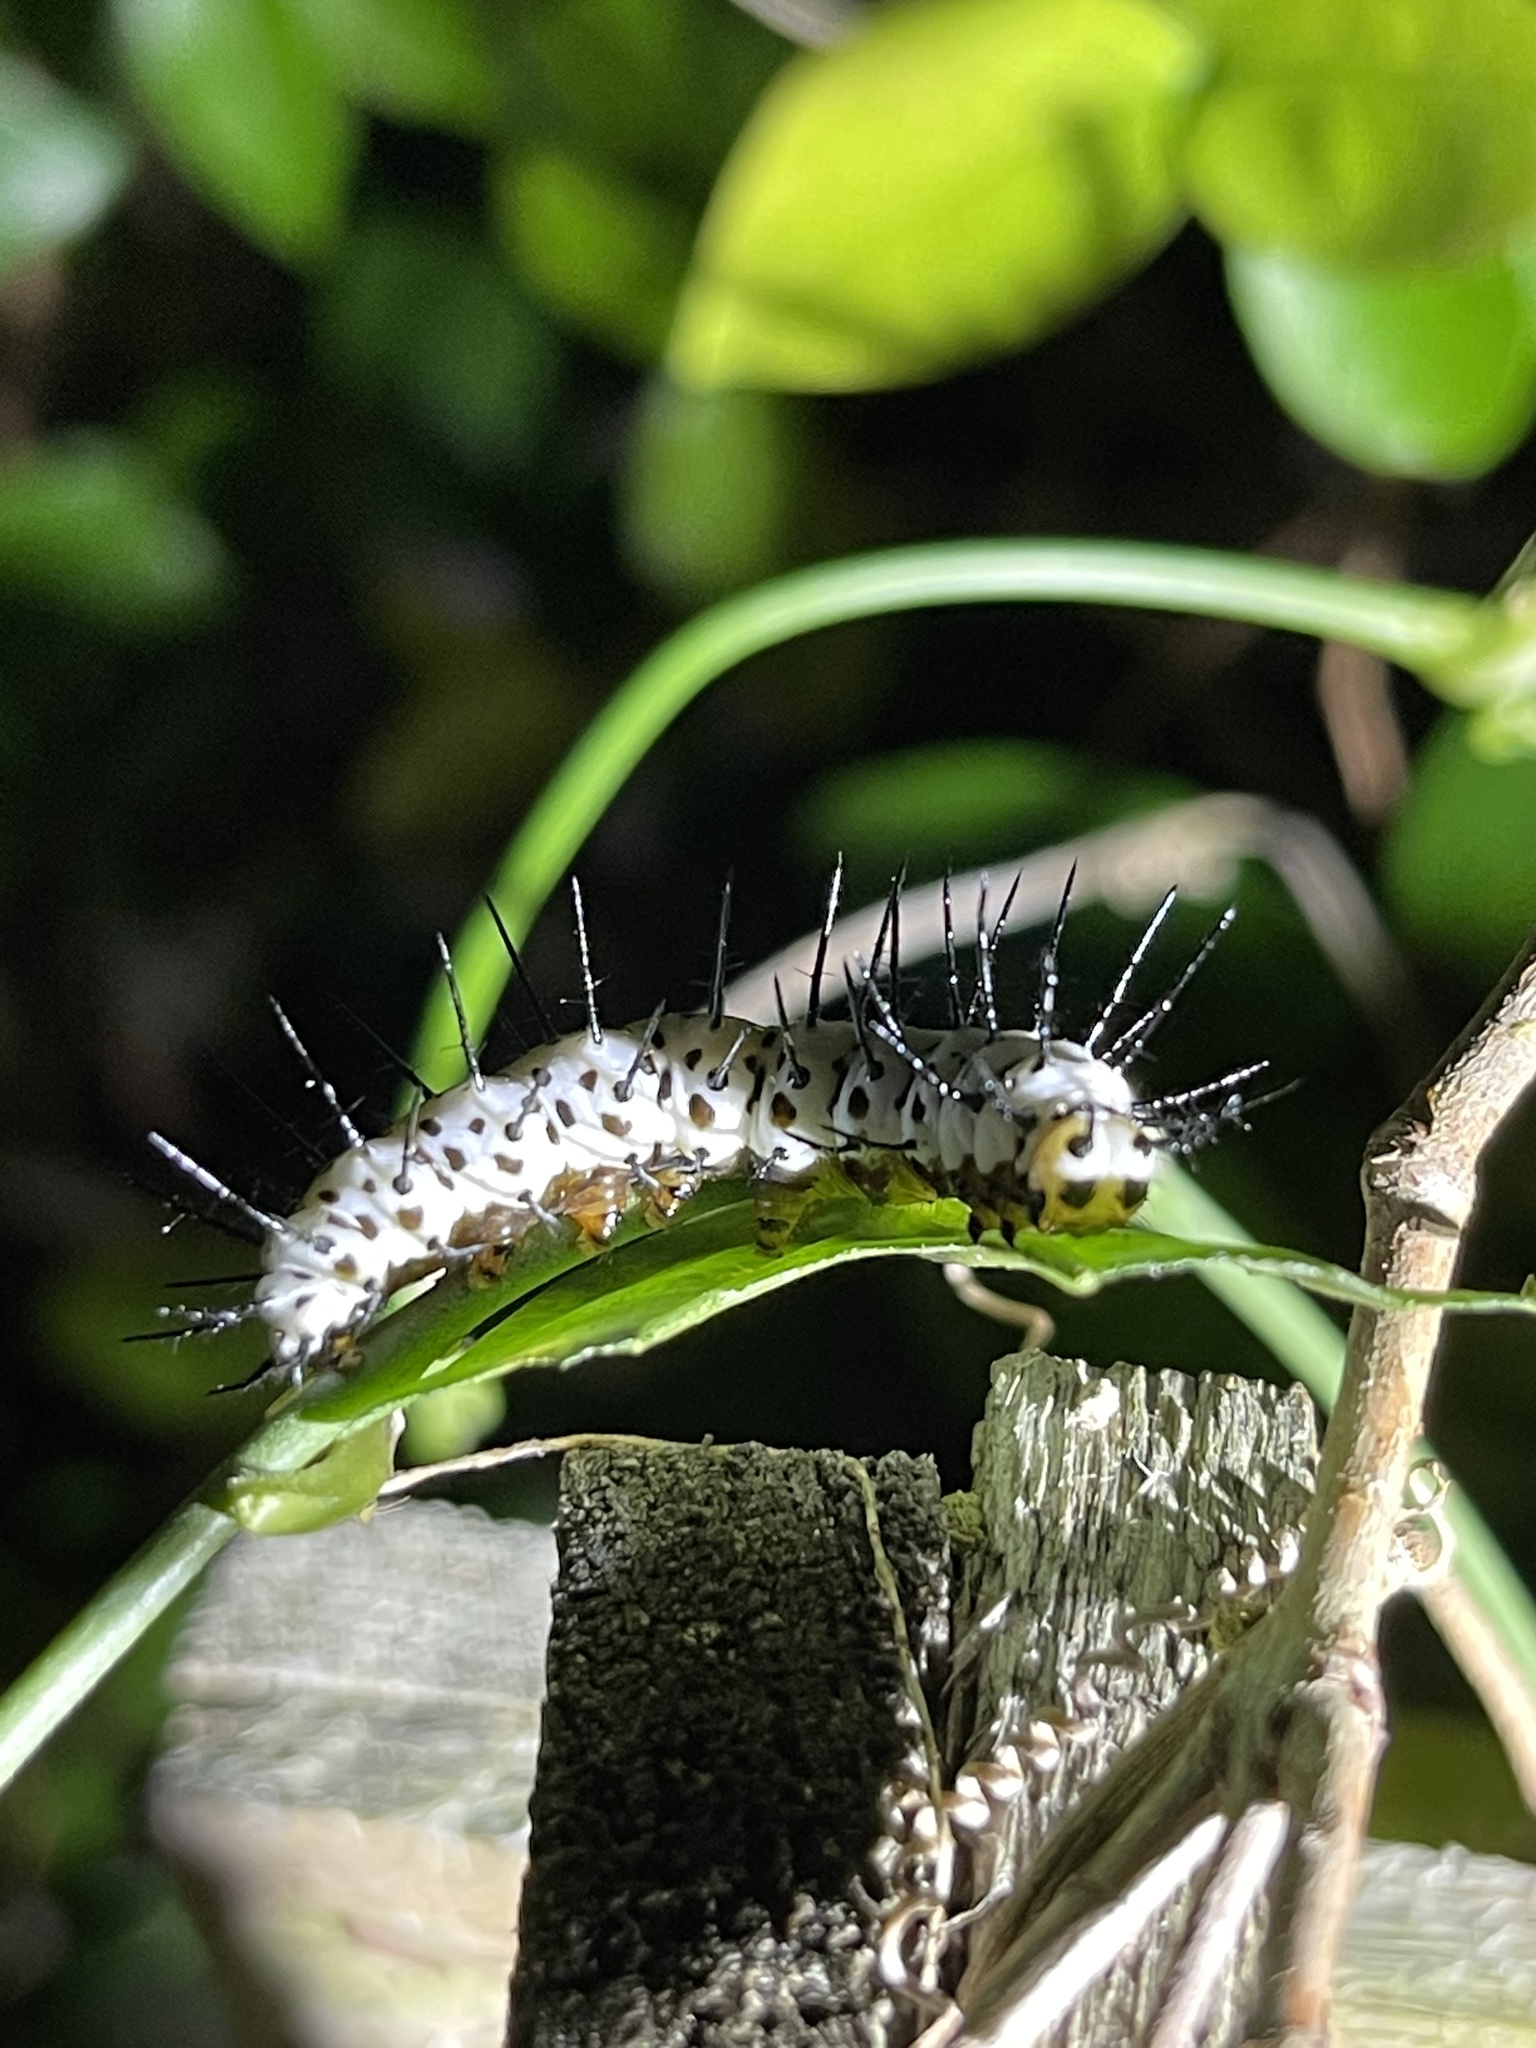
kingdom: Animalia
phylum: Arthropoda
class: Insecta
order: Lepidoptera
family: Nymphalidae
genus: Heliconius
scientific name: Heliconius charithonia
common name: Zebra long wing
